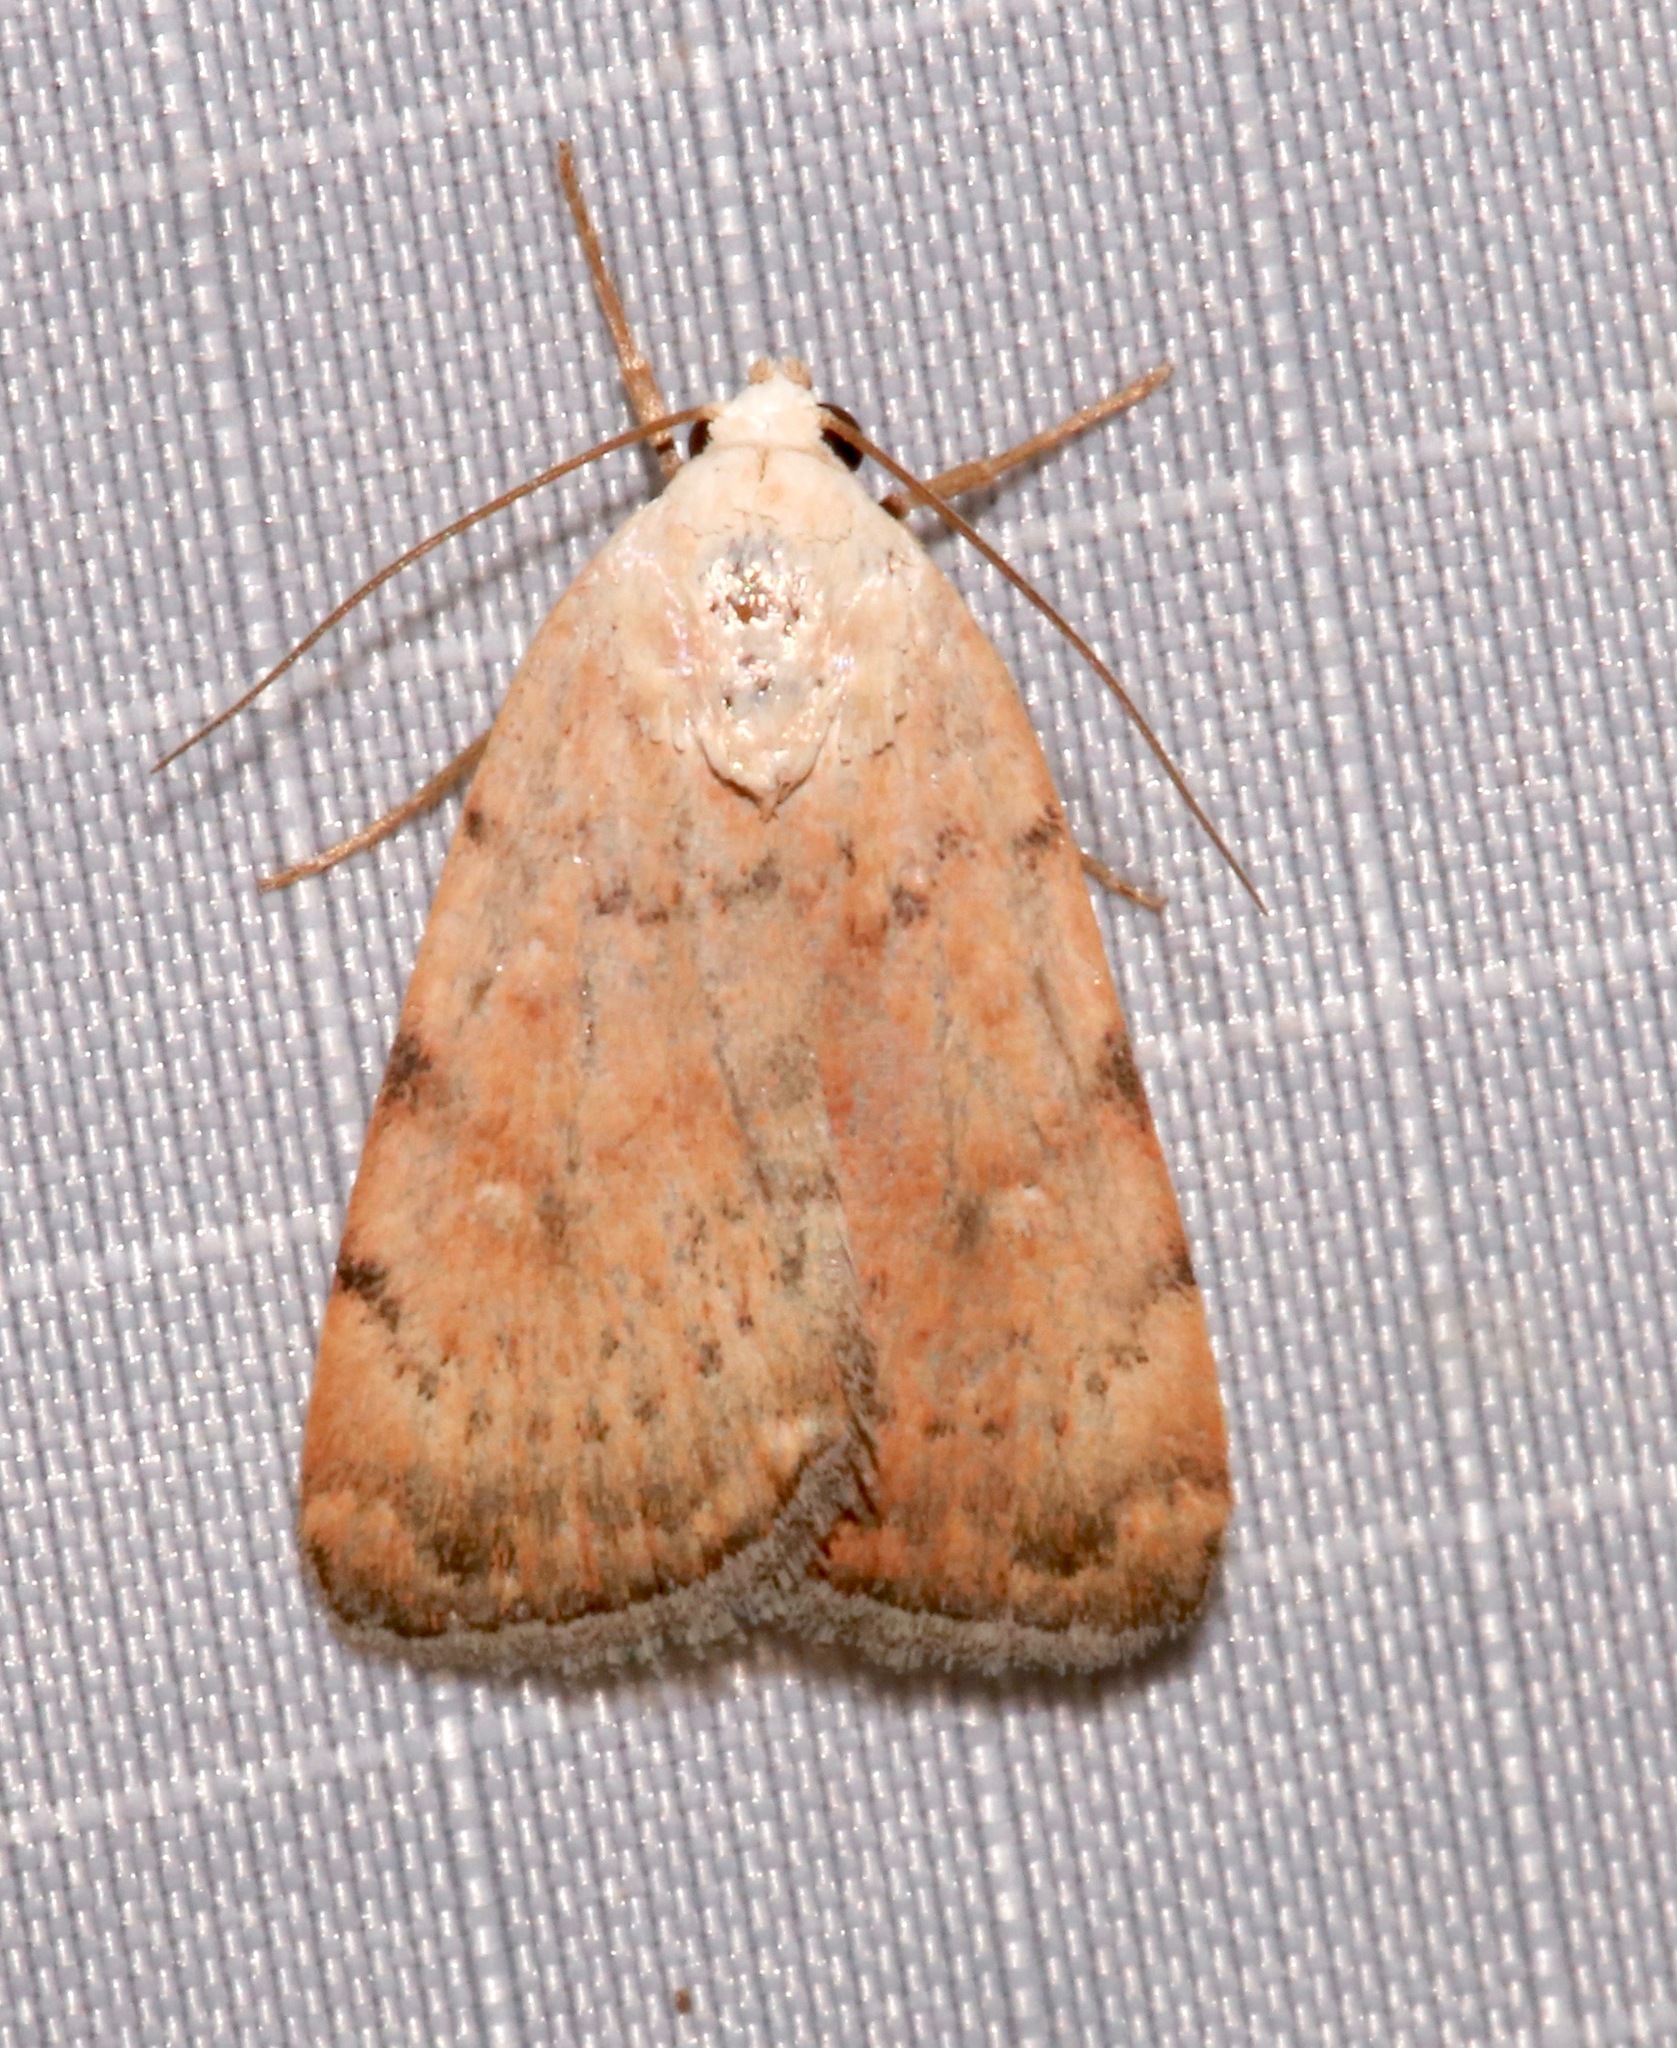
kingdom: Animalia
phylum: Arthropoda
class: Insecta
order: Lepidoptera
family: Noctuidae
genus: Micrathetis
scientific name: Micrathetis triplex
